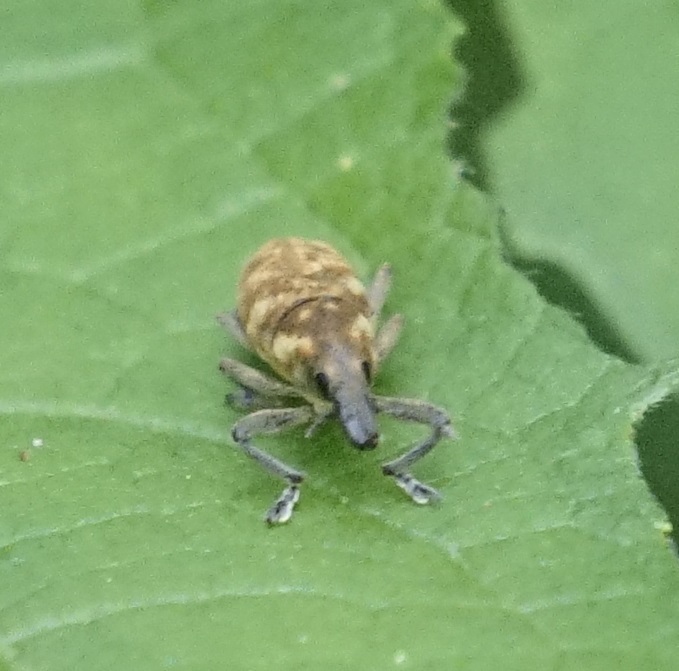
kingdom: Animalia
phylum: Arthropoda
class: Insecta
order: Coleoptera
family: Curculionidae
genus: Gasteroclisus
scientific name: Gasteroclisus
